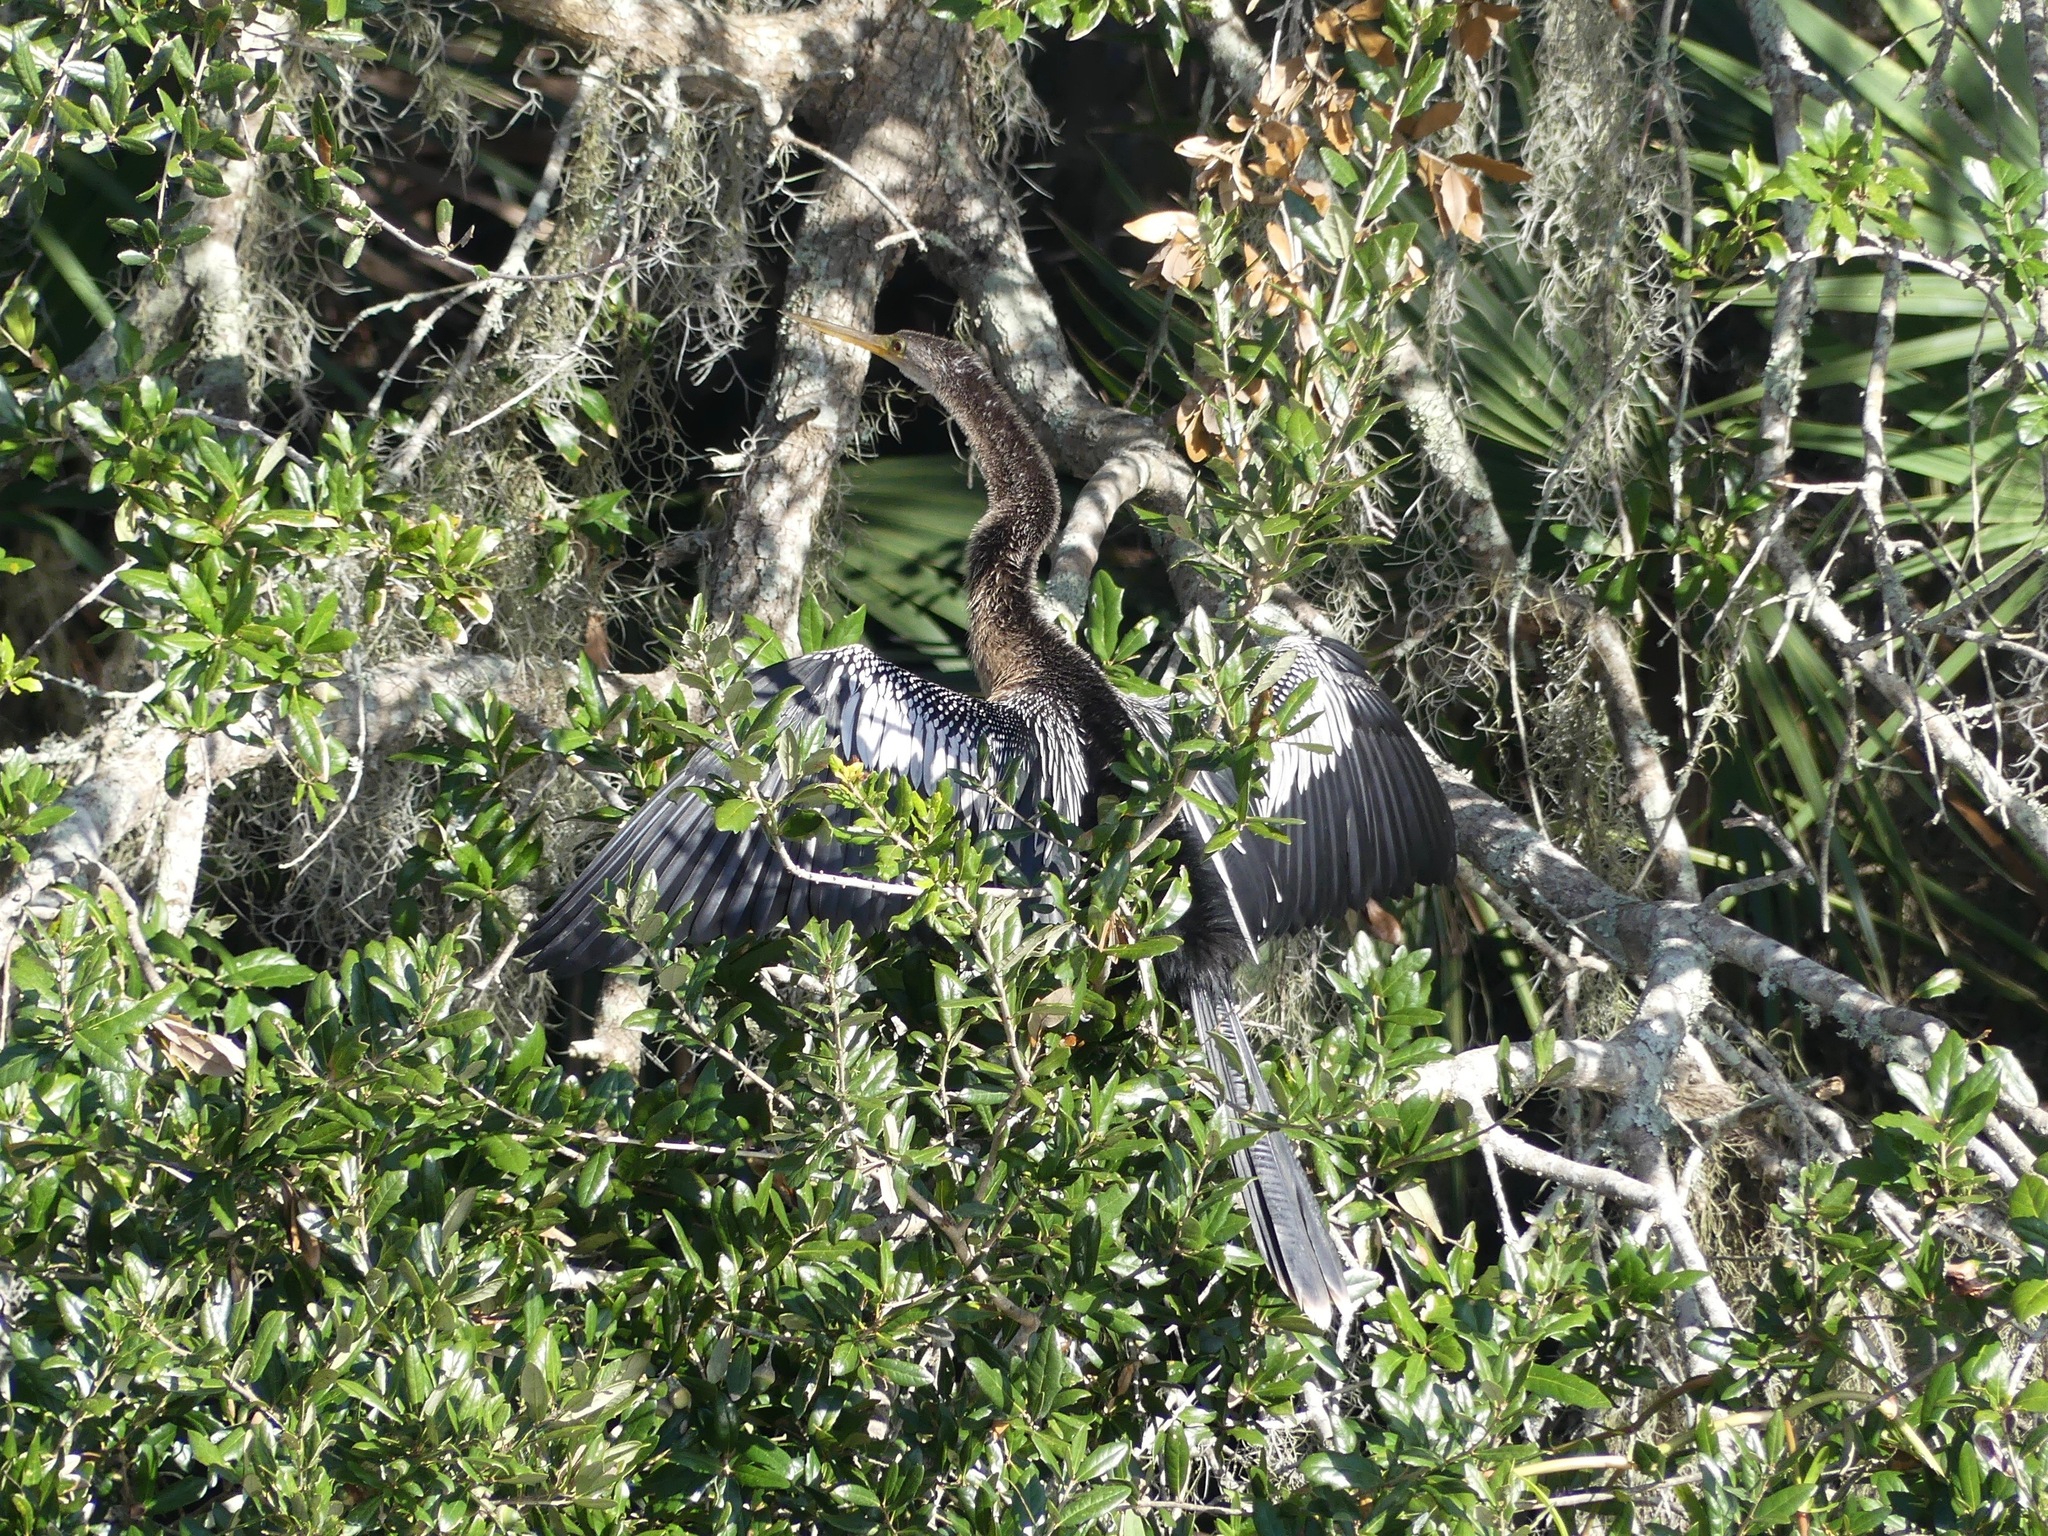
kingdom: Animalia
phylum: Chordata
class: Aves
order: Suliformes
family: Anhingidae
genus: Anhinga
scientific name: Anhinga anhinga
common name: Anhinga
